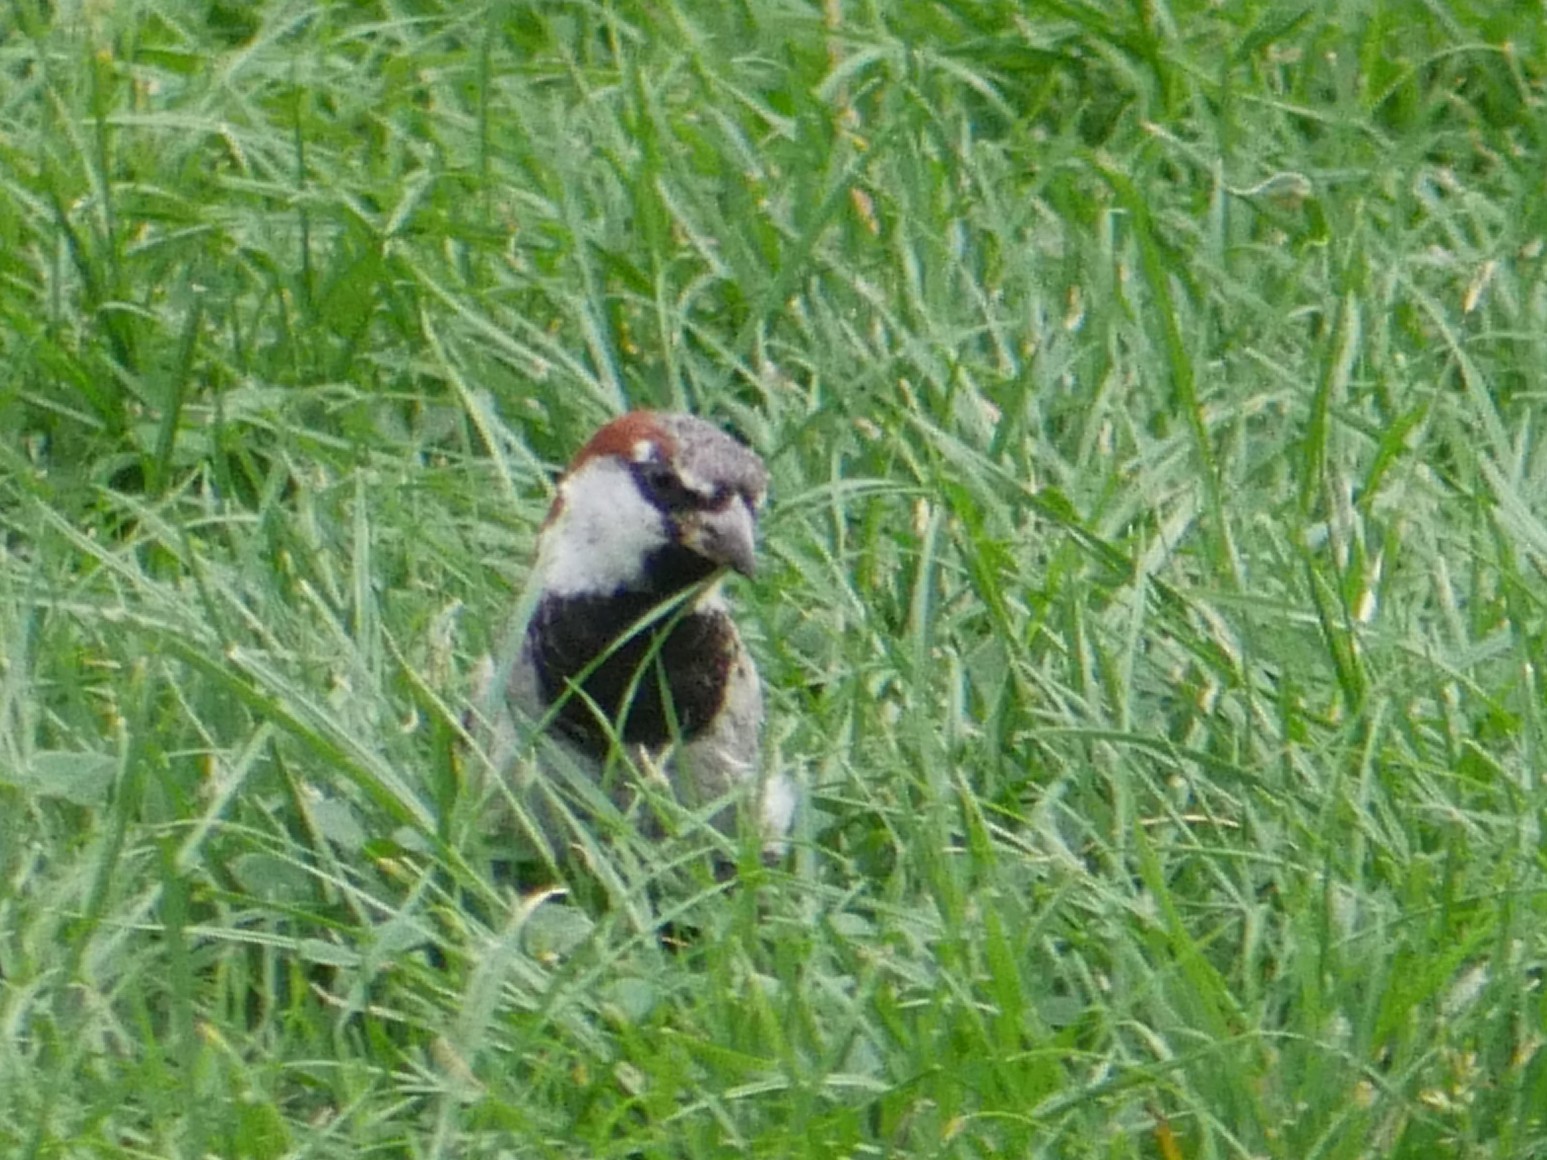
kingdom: Animalia
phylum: Chordata
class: Aves
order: Passeriformes
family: Passeridae
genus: Passer
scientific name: Passer domesticus
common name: House sparrow
